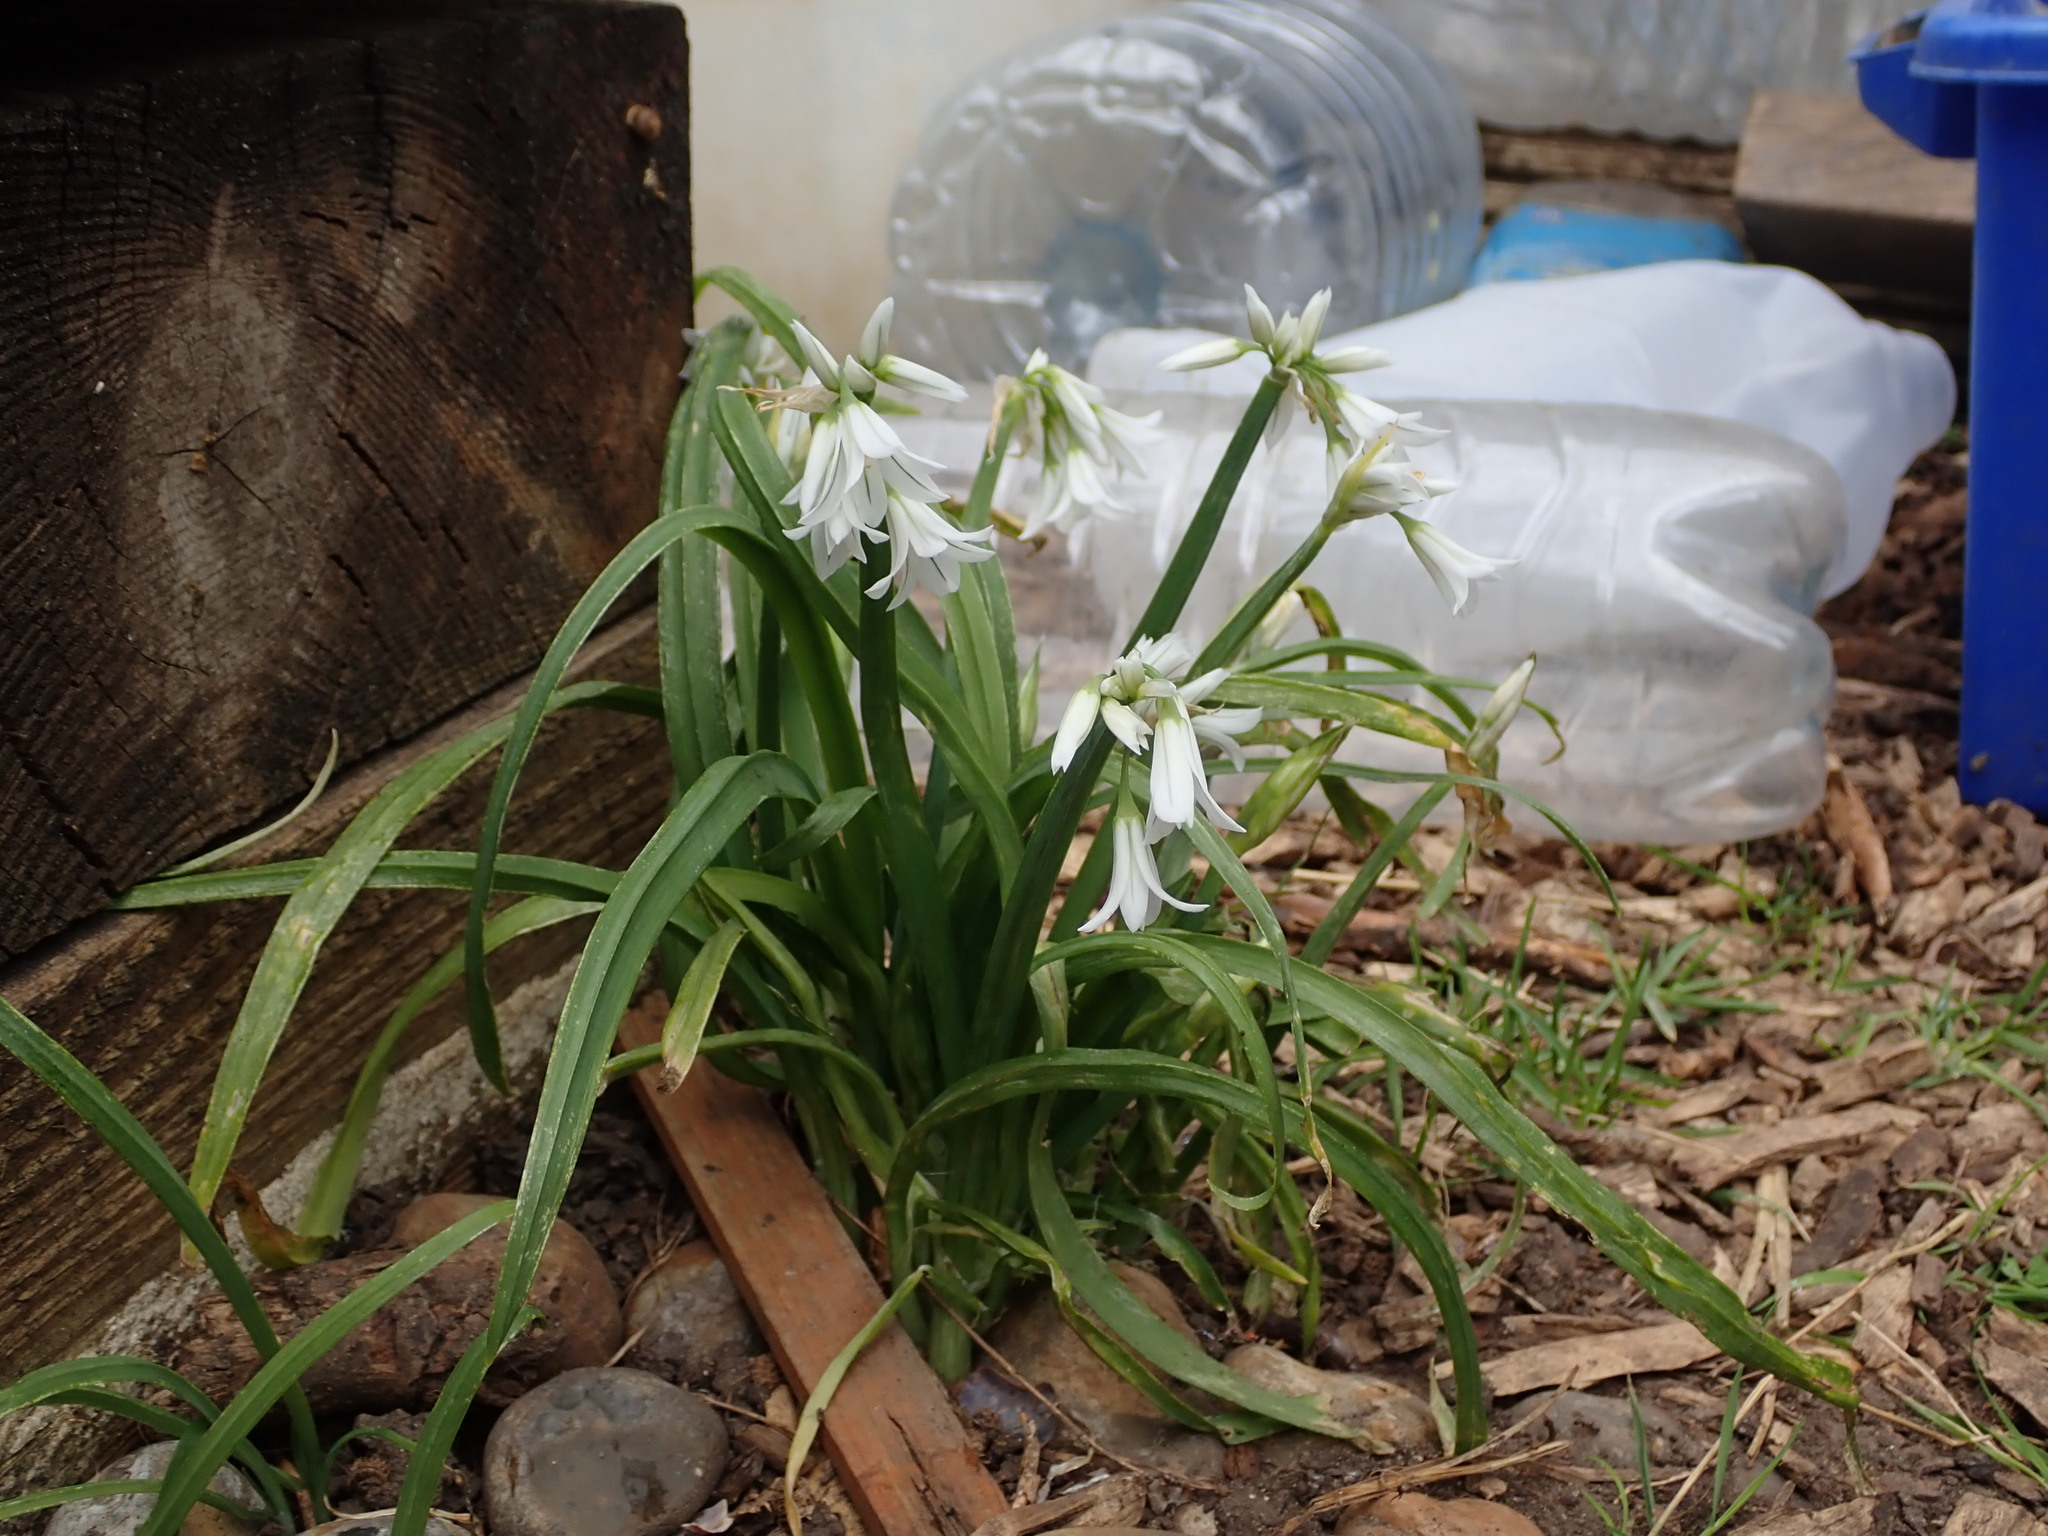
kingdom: Plantae
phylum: Tracheophyta
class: Liliopsida
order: Asparagales
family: Amaryllidaceae
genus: Allium
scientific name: Allium triquetrum
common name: Three-cornered garlic
